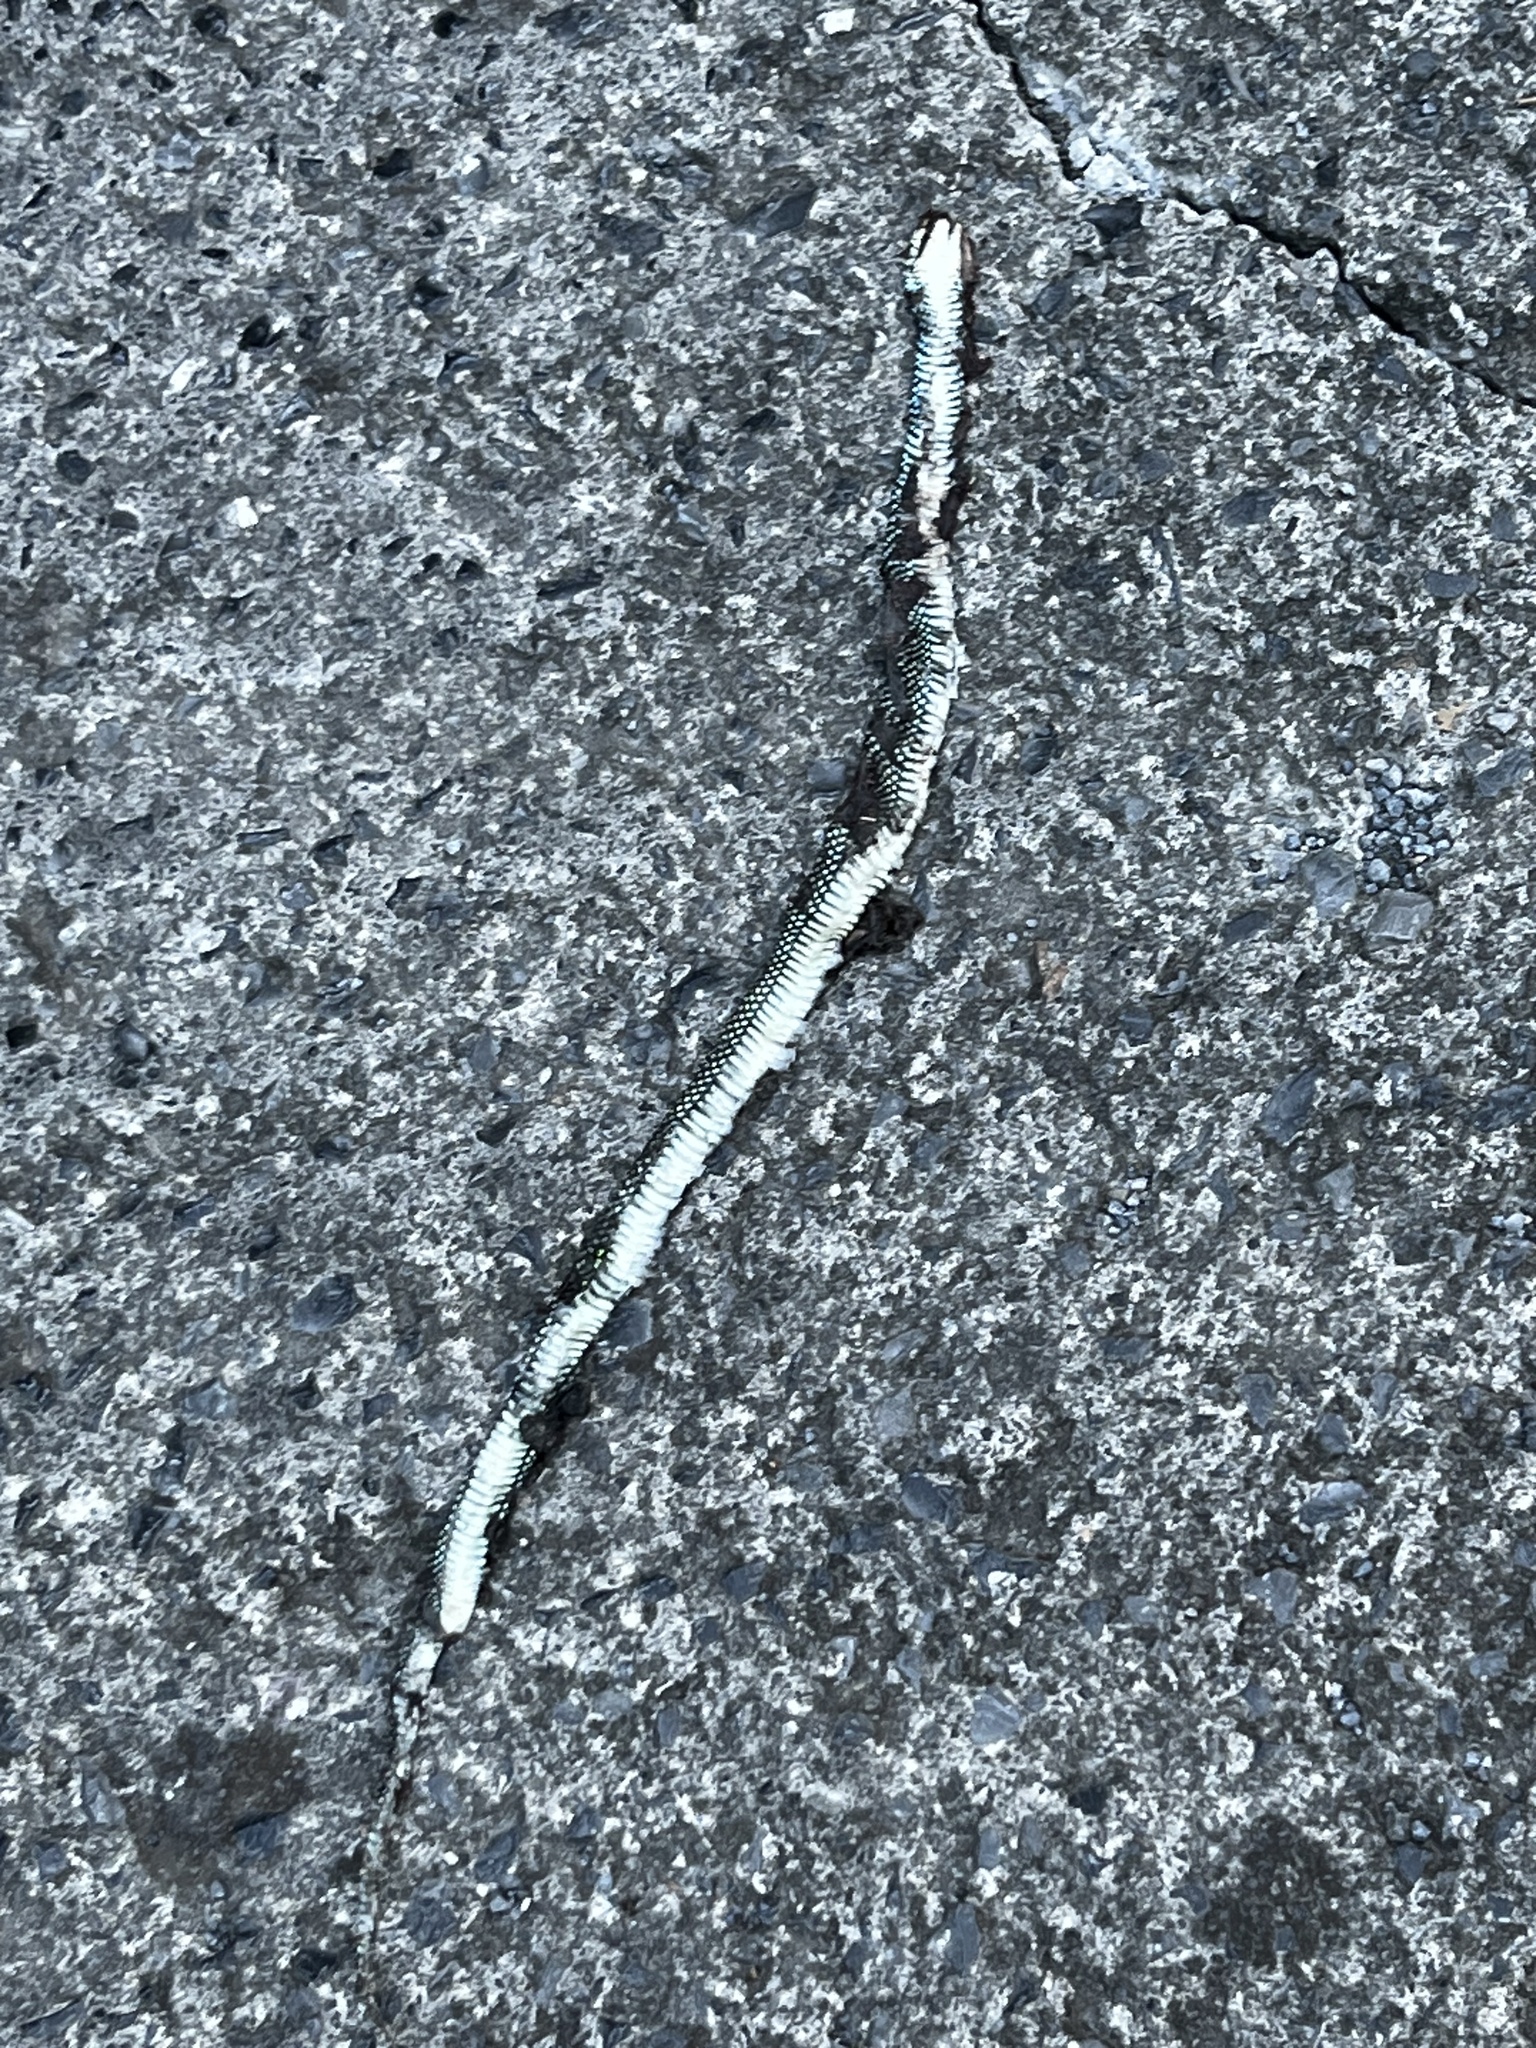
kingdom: Animalia
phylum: Chordata
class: Squamata
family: Colubridae
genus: Drymobius
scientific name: Drymobius margaritiferus
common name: Central american speckled racer
